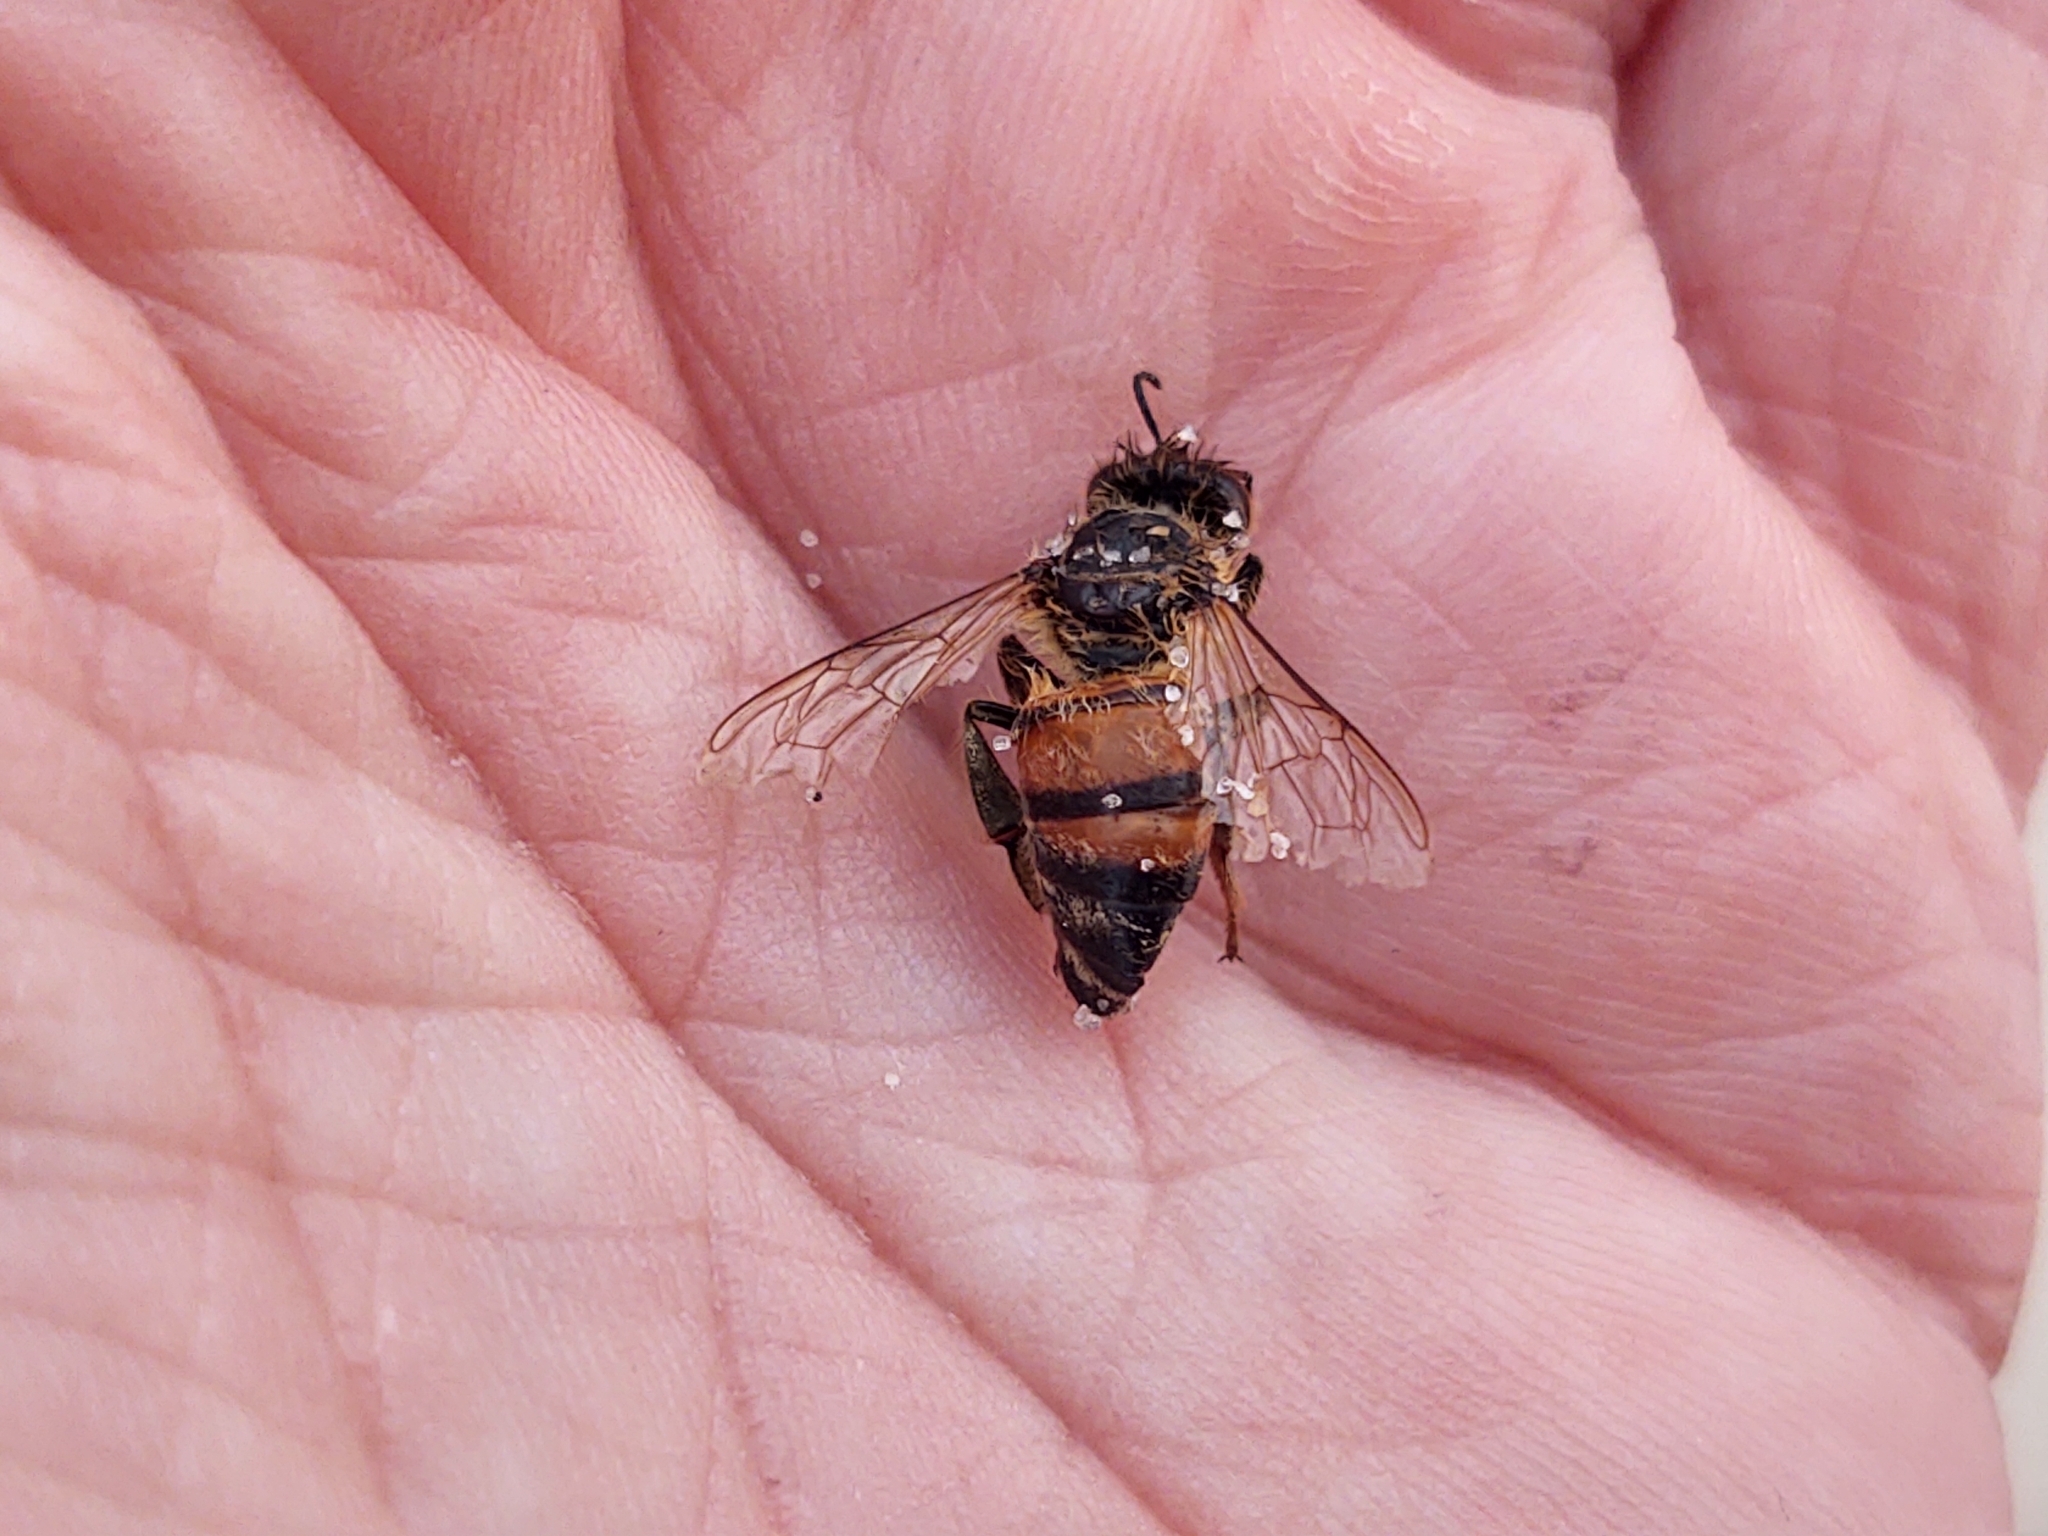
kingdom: Animalia
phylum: Arthropoda
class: Insecta
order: Hymenoptera
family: Apidae
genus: Apis
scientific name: Apis mellifera
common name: Honey bee
